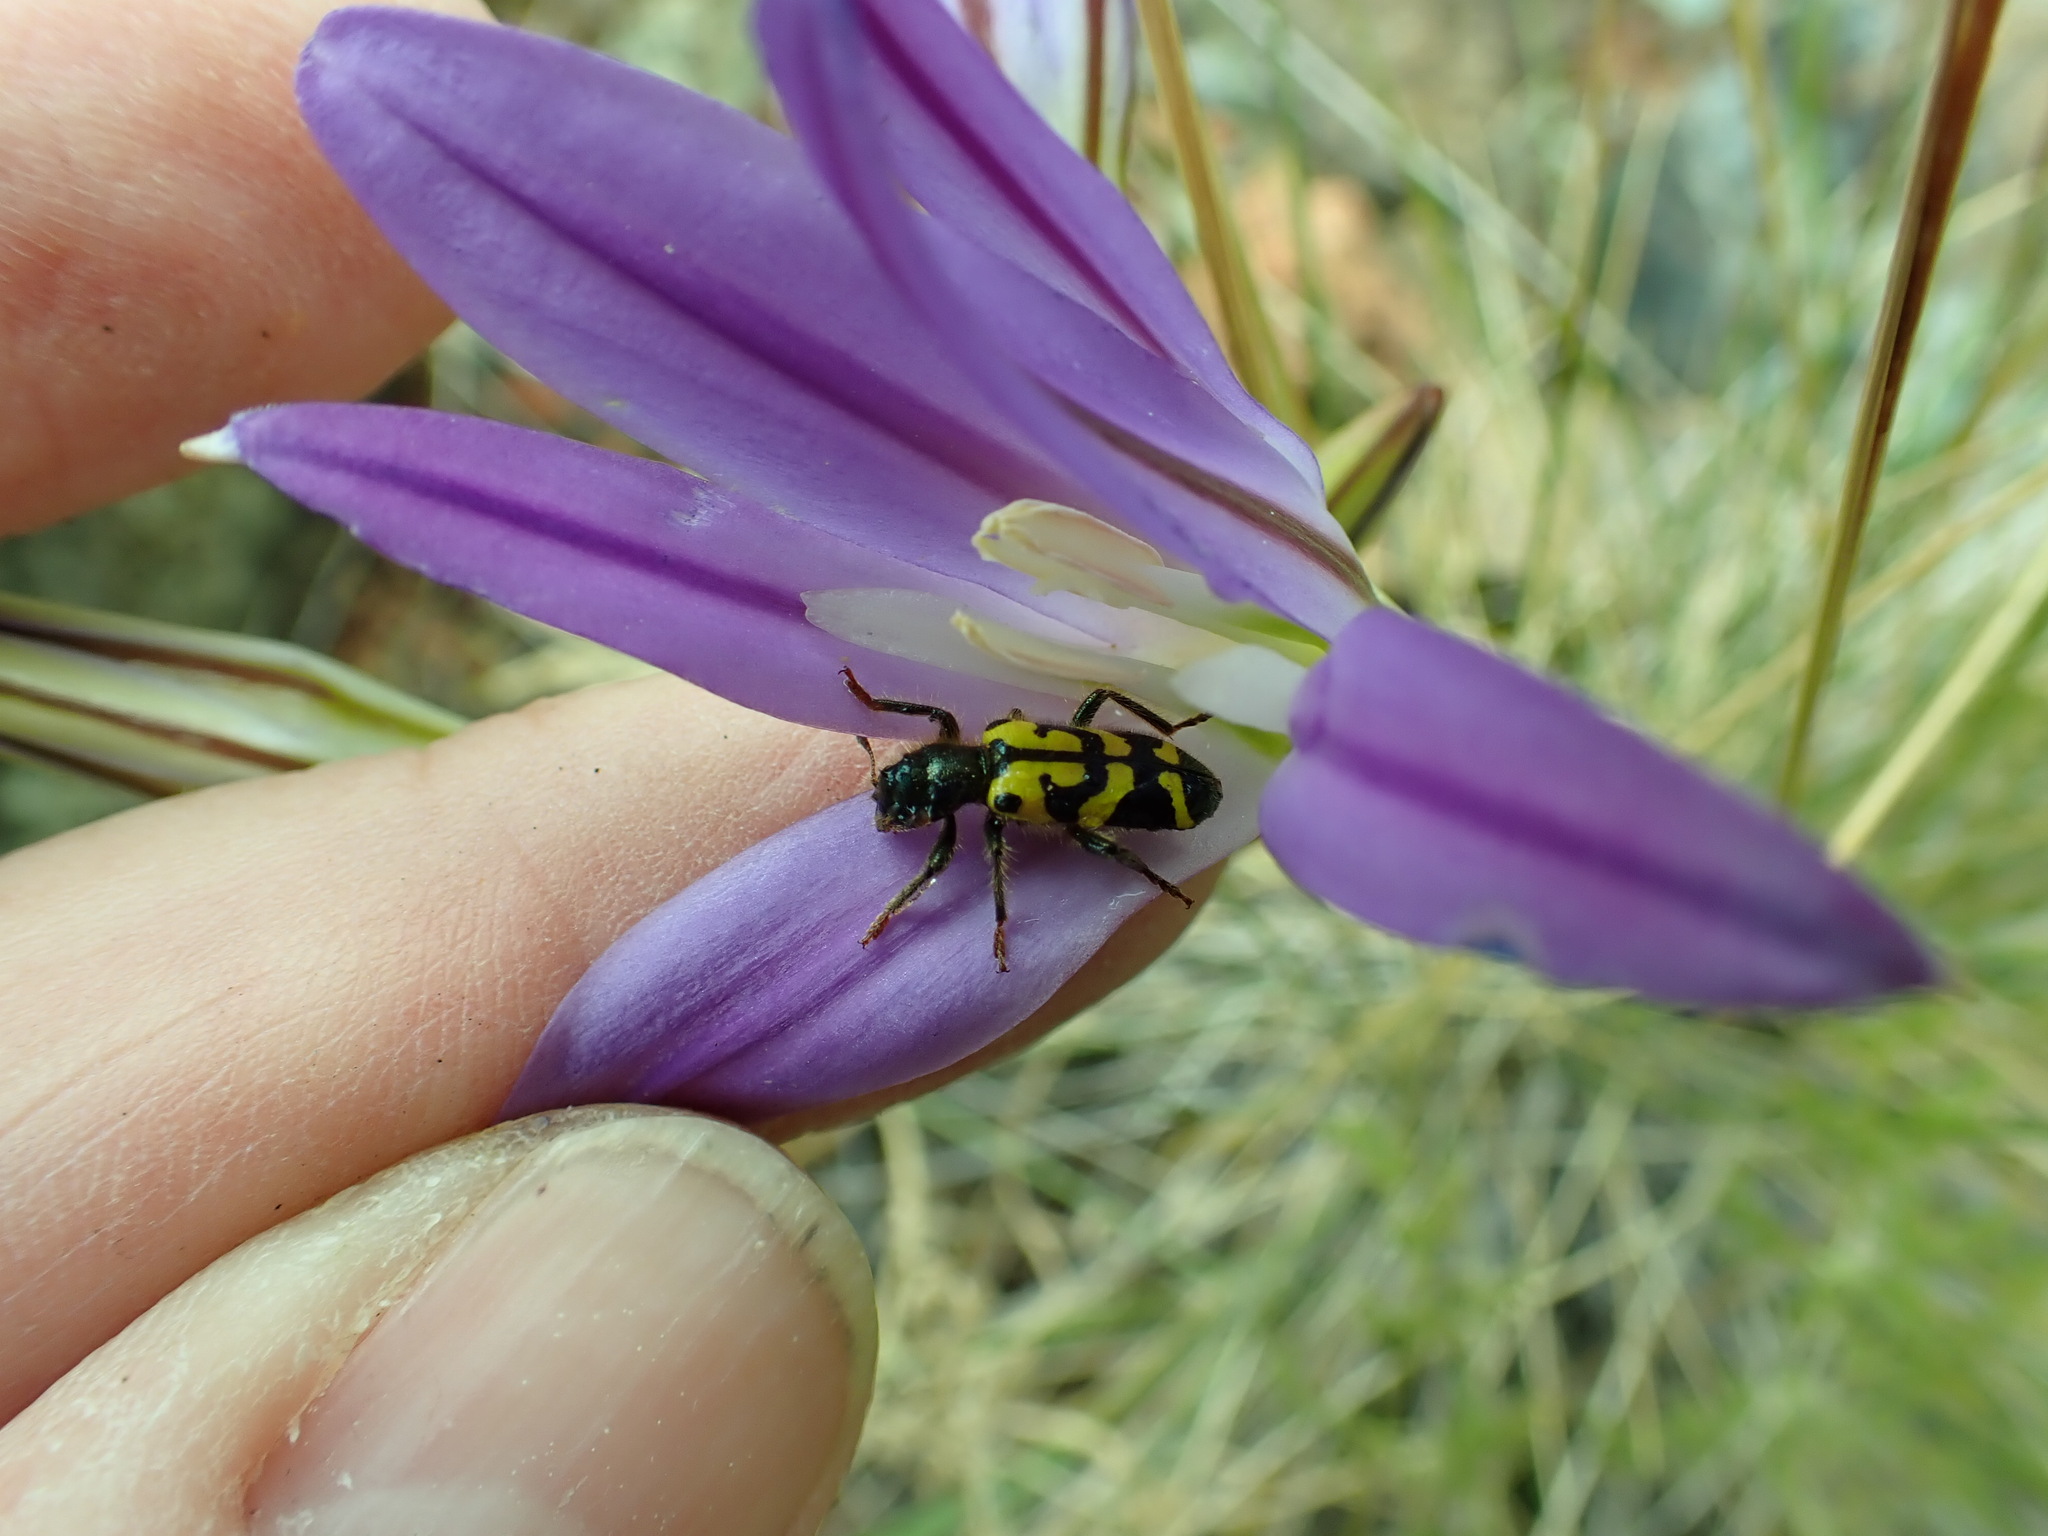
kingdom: Animalia
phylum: Arthropoda
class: Insecta
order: Coleoptera
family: Cleridae
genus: Trichodes
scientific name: Trichodes ornatus
